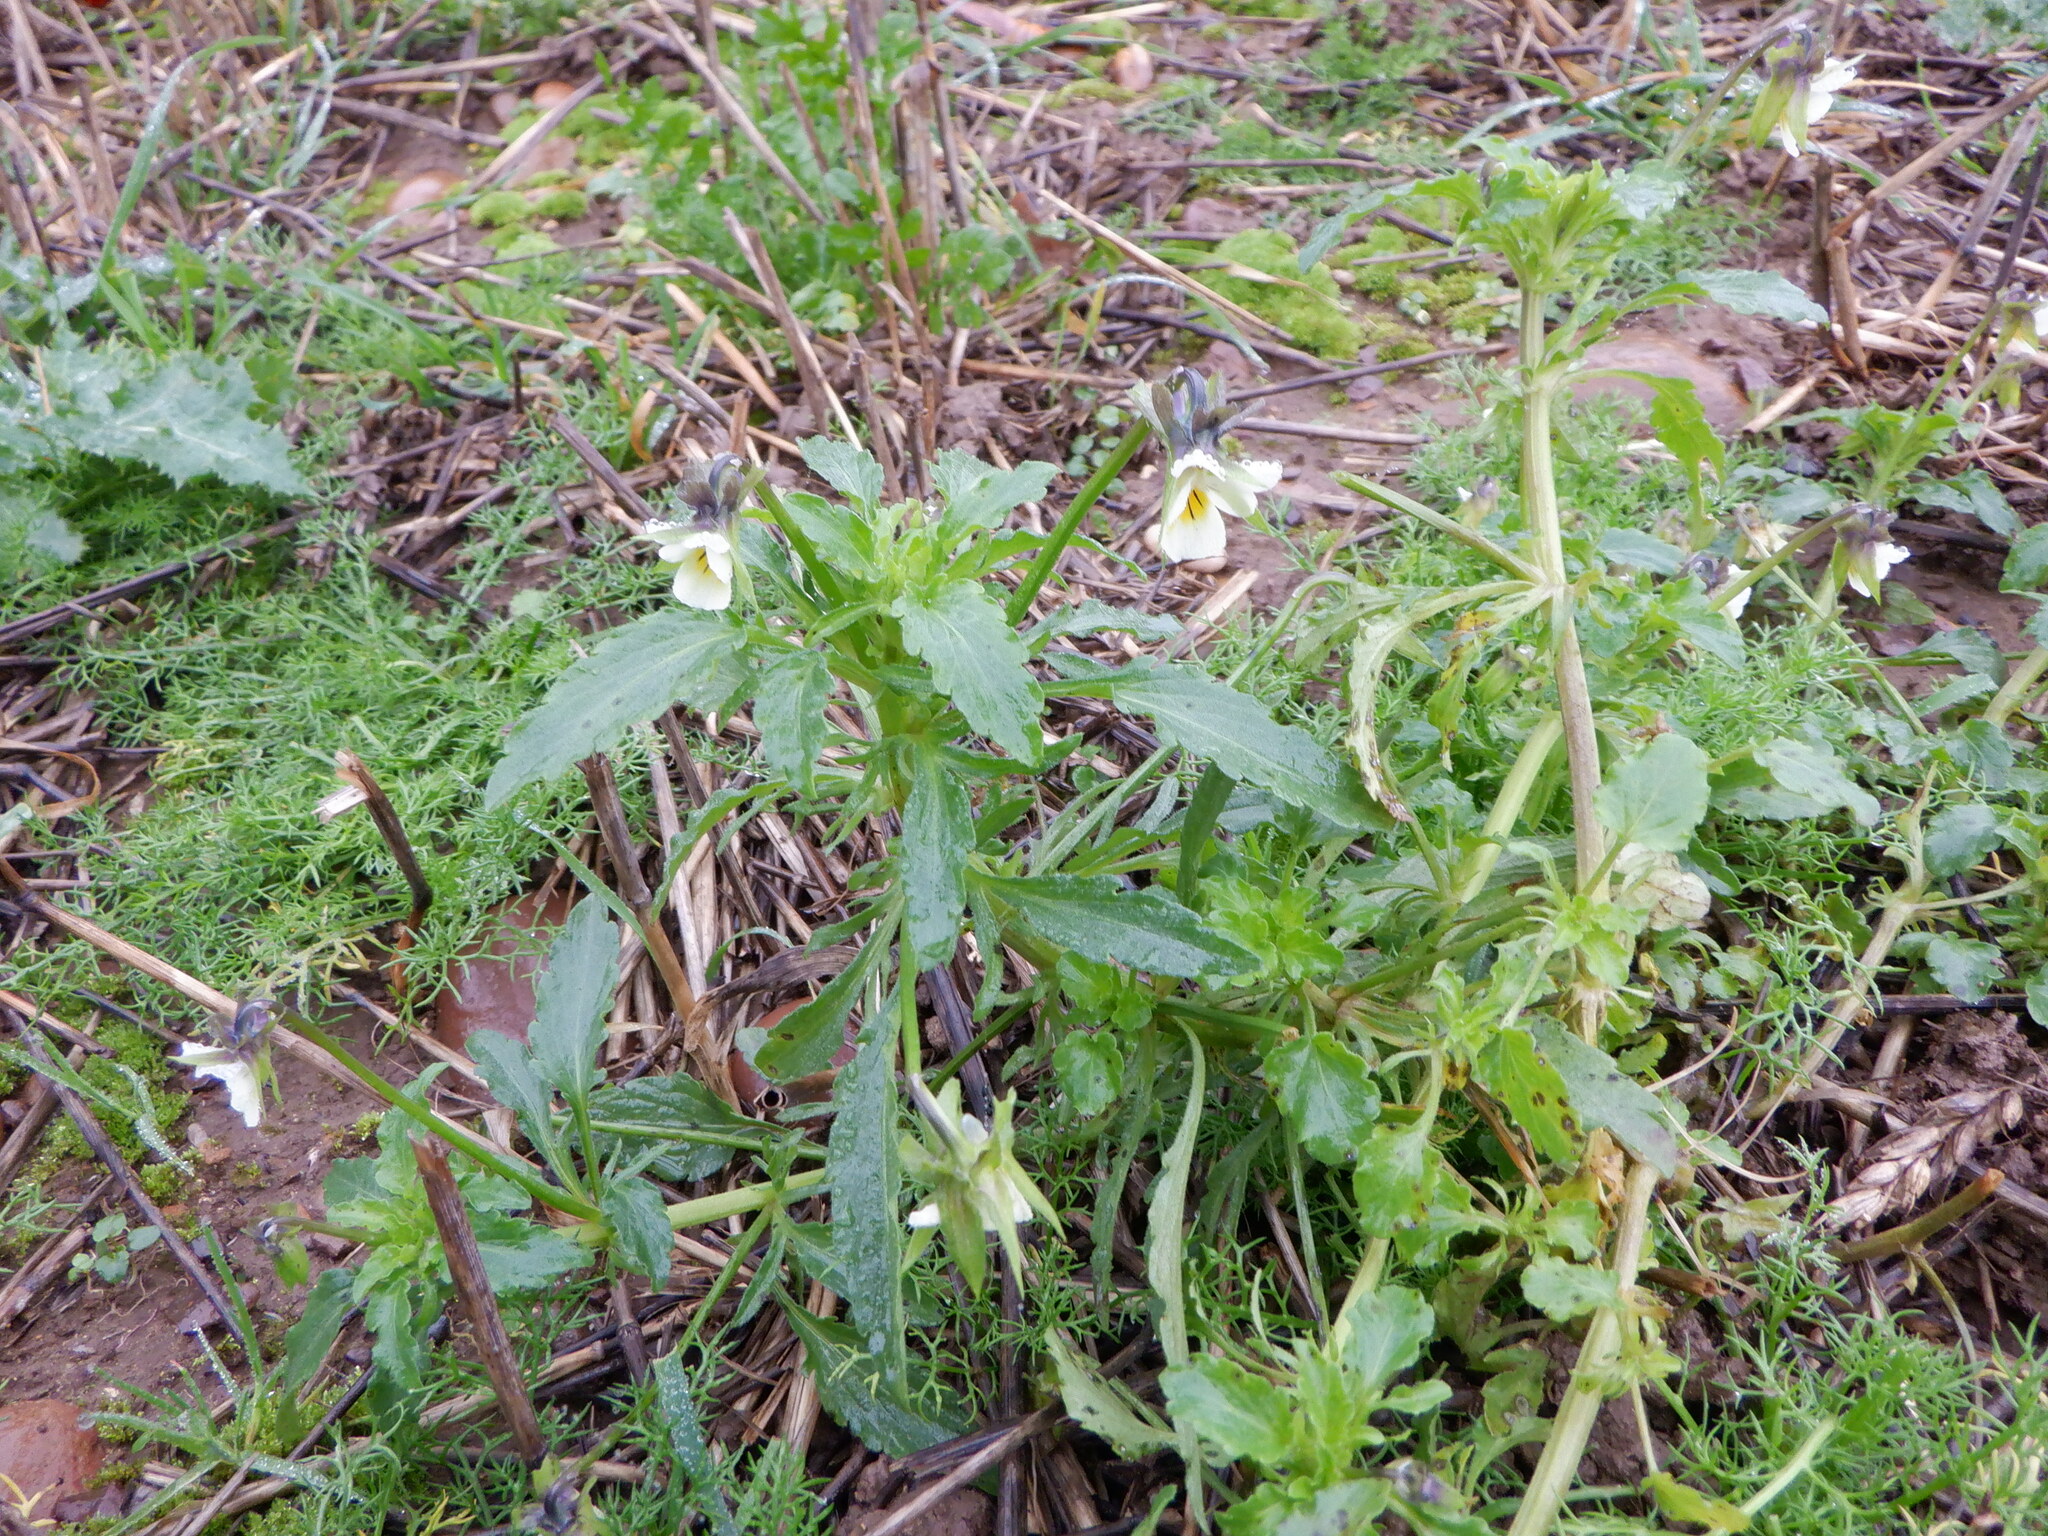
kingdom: Plantae
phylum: Tracheophyta
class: Magnoliopsida
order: Malpighiales
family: Violaceae
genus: Viola
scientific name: Viola arvensis
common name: Field pansy
